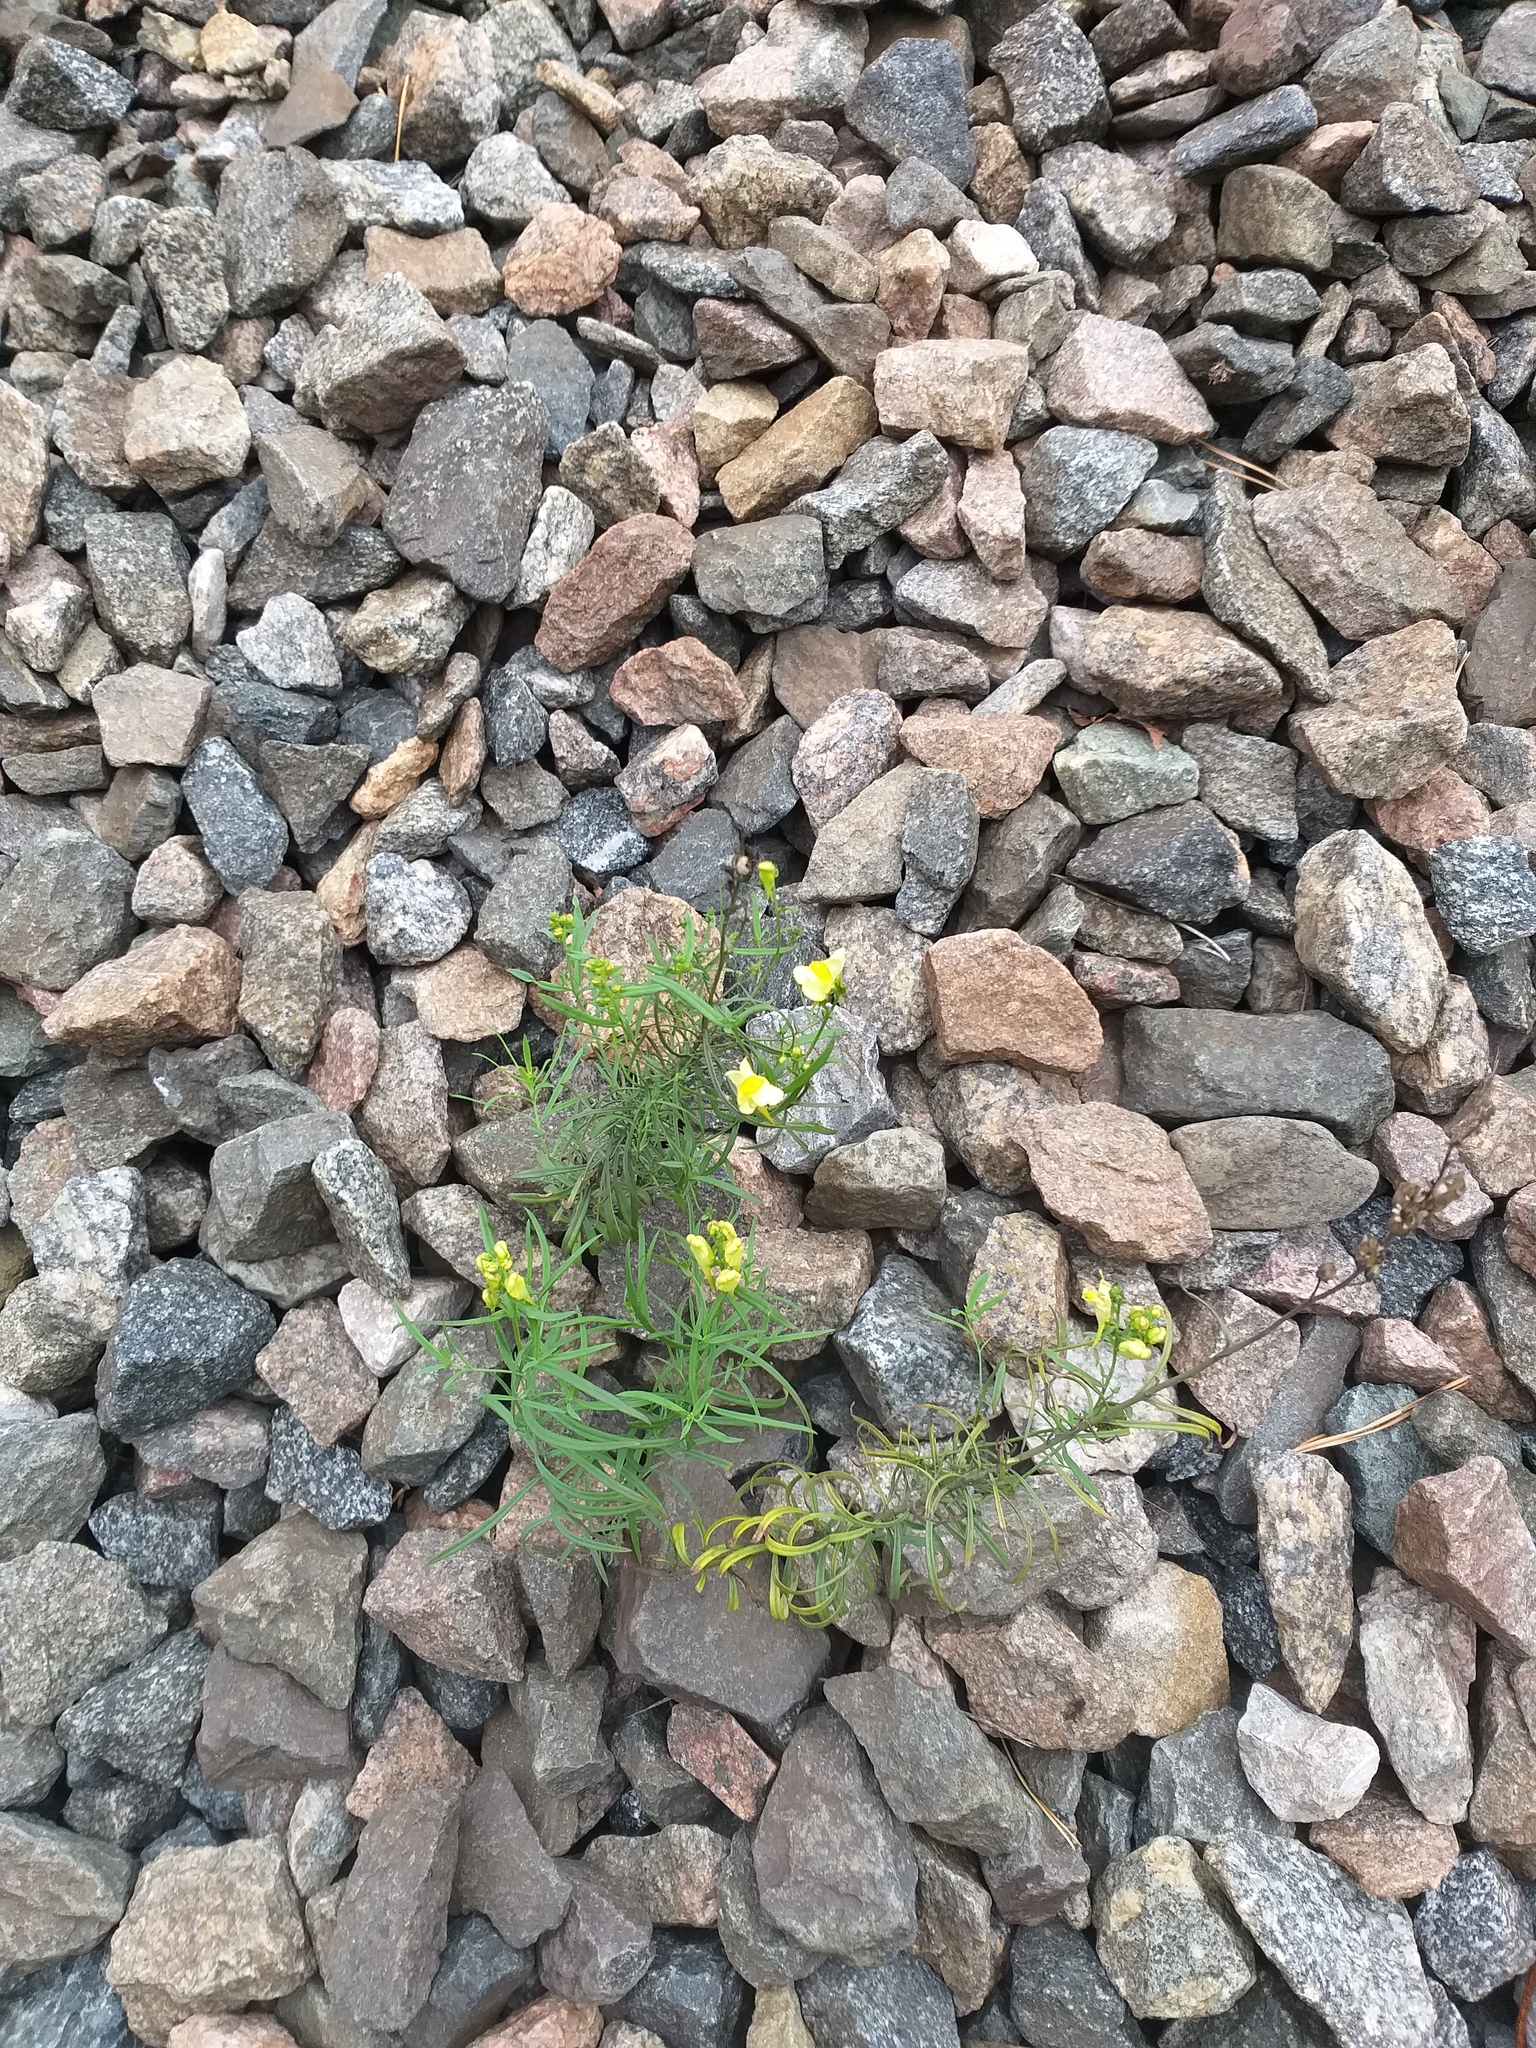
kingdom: Plantae
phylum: Tracheophyta
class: Magnoliopsida
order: Lamiales
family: Plantaginaceae
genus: Linaria
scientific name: Linaria vulgaris
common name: Butter and eggs
